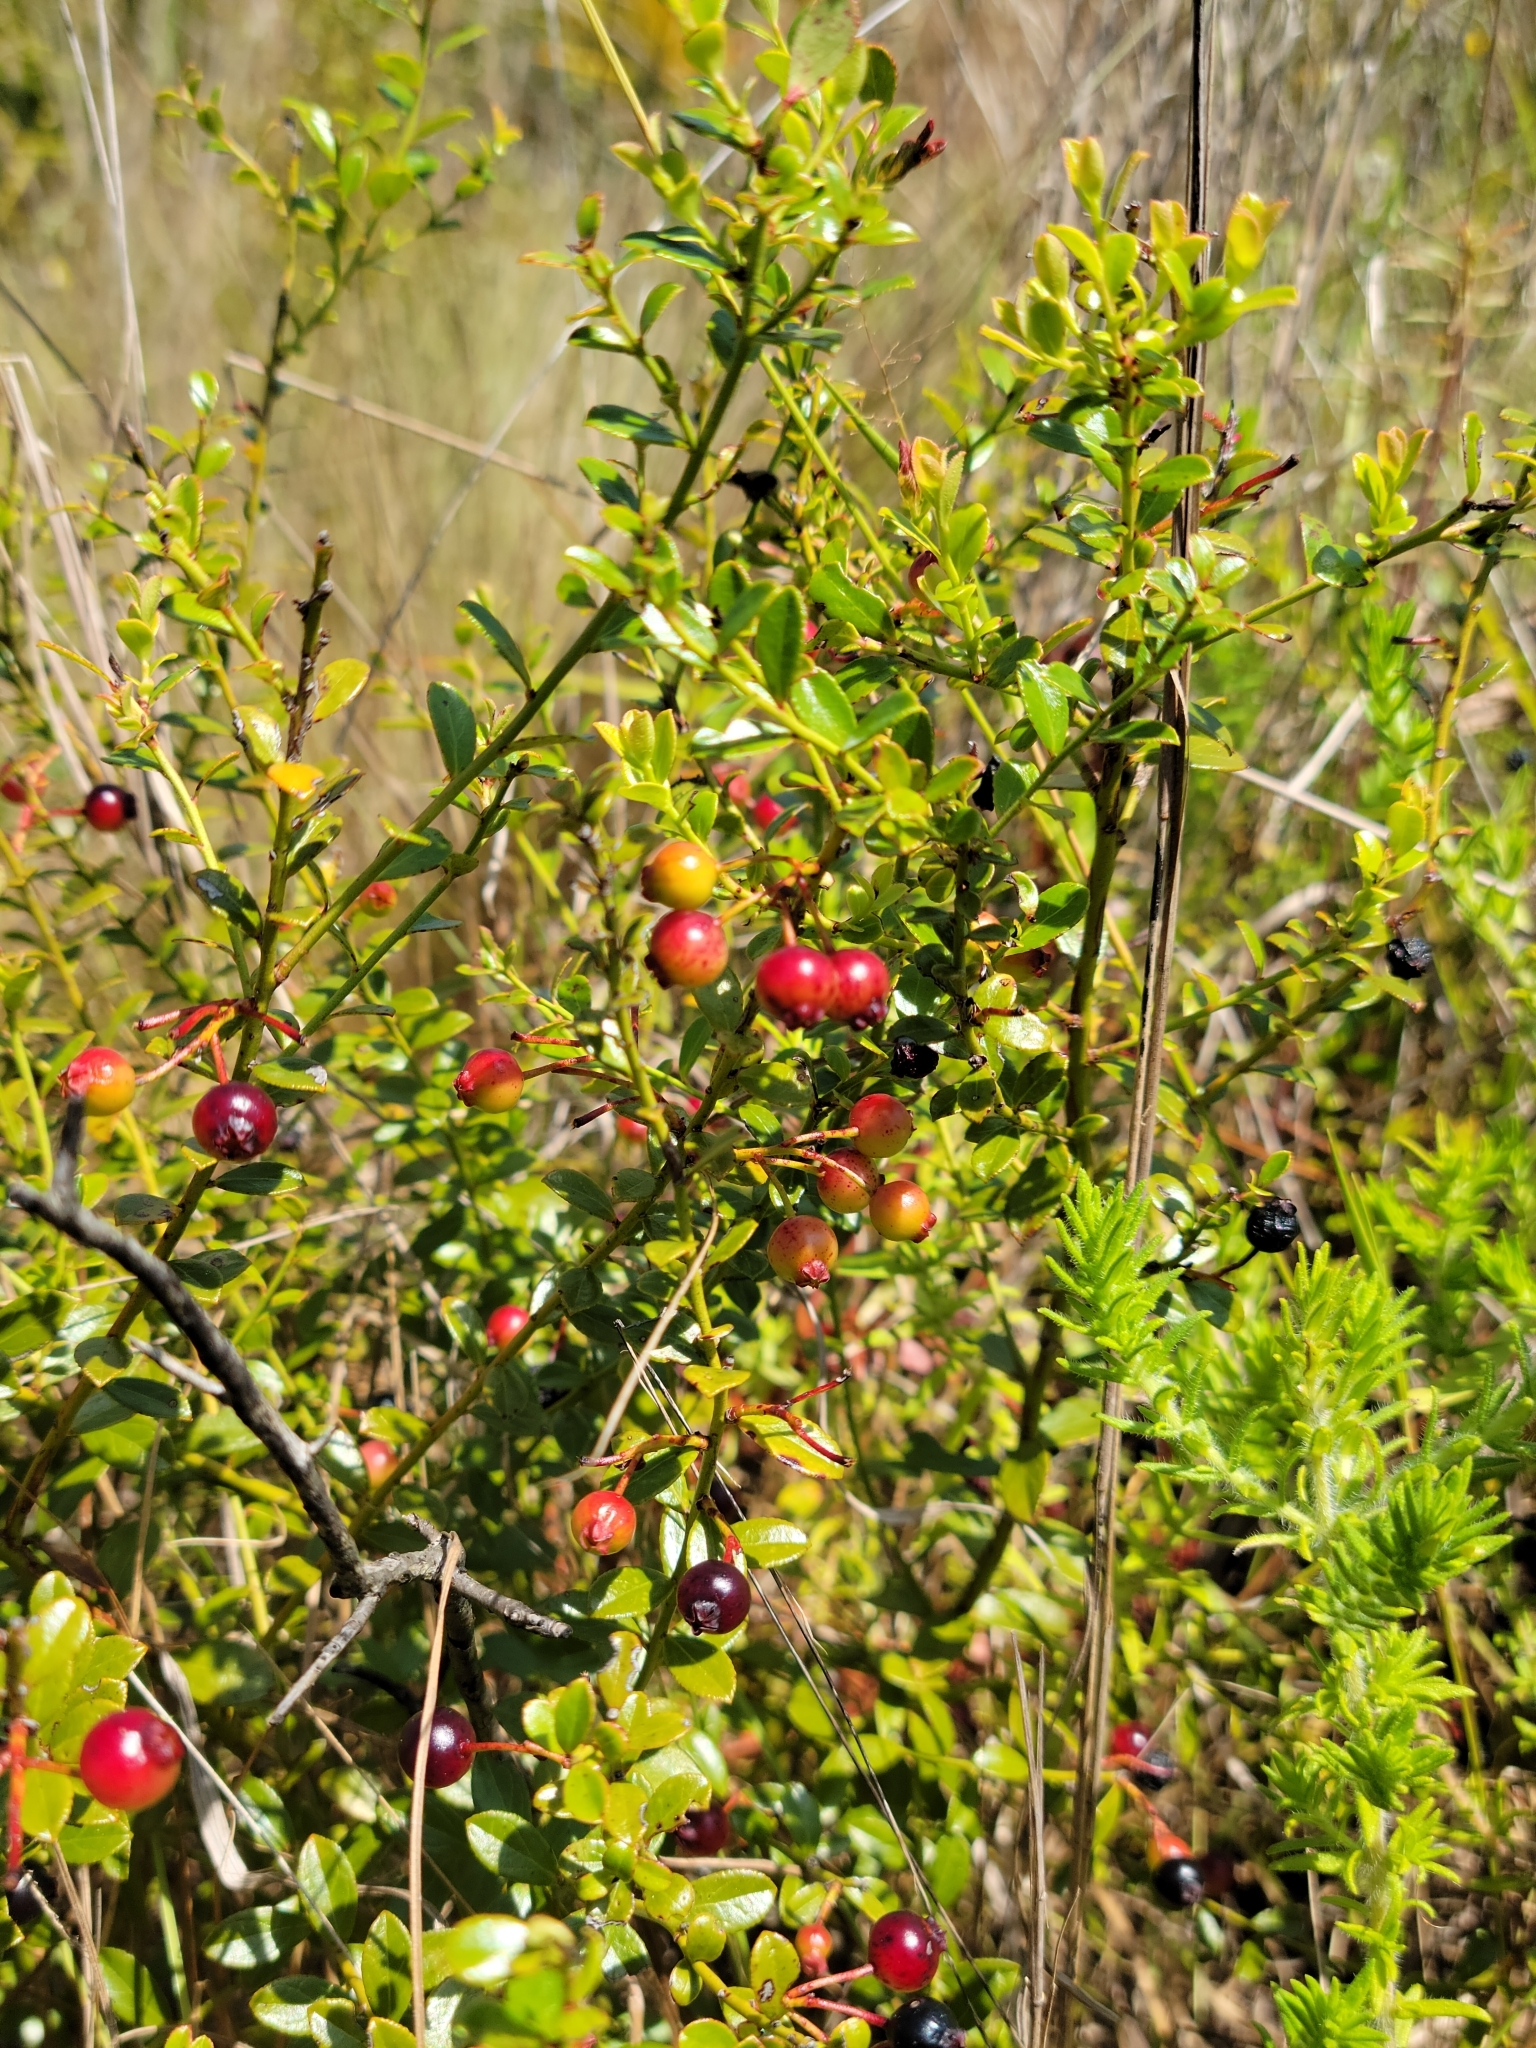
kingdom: Plantae
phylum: Tracheophyta
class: Magnoliopsida
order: Ericales
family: Ericaceae
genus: Vaccinium
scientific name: Vaccinium myrsinites
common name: Evergreen blueberry
